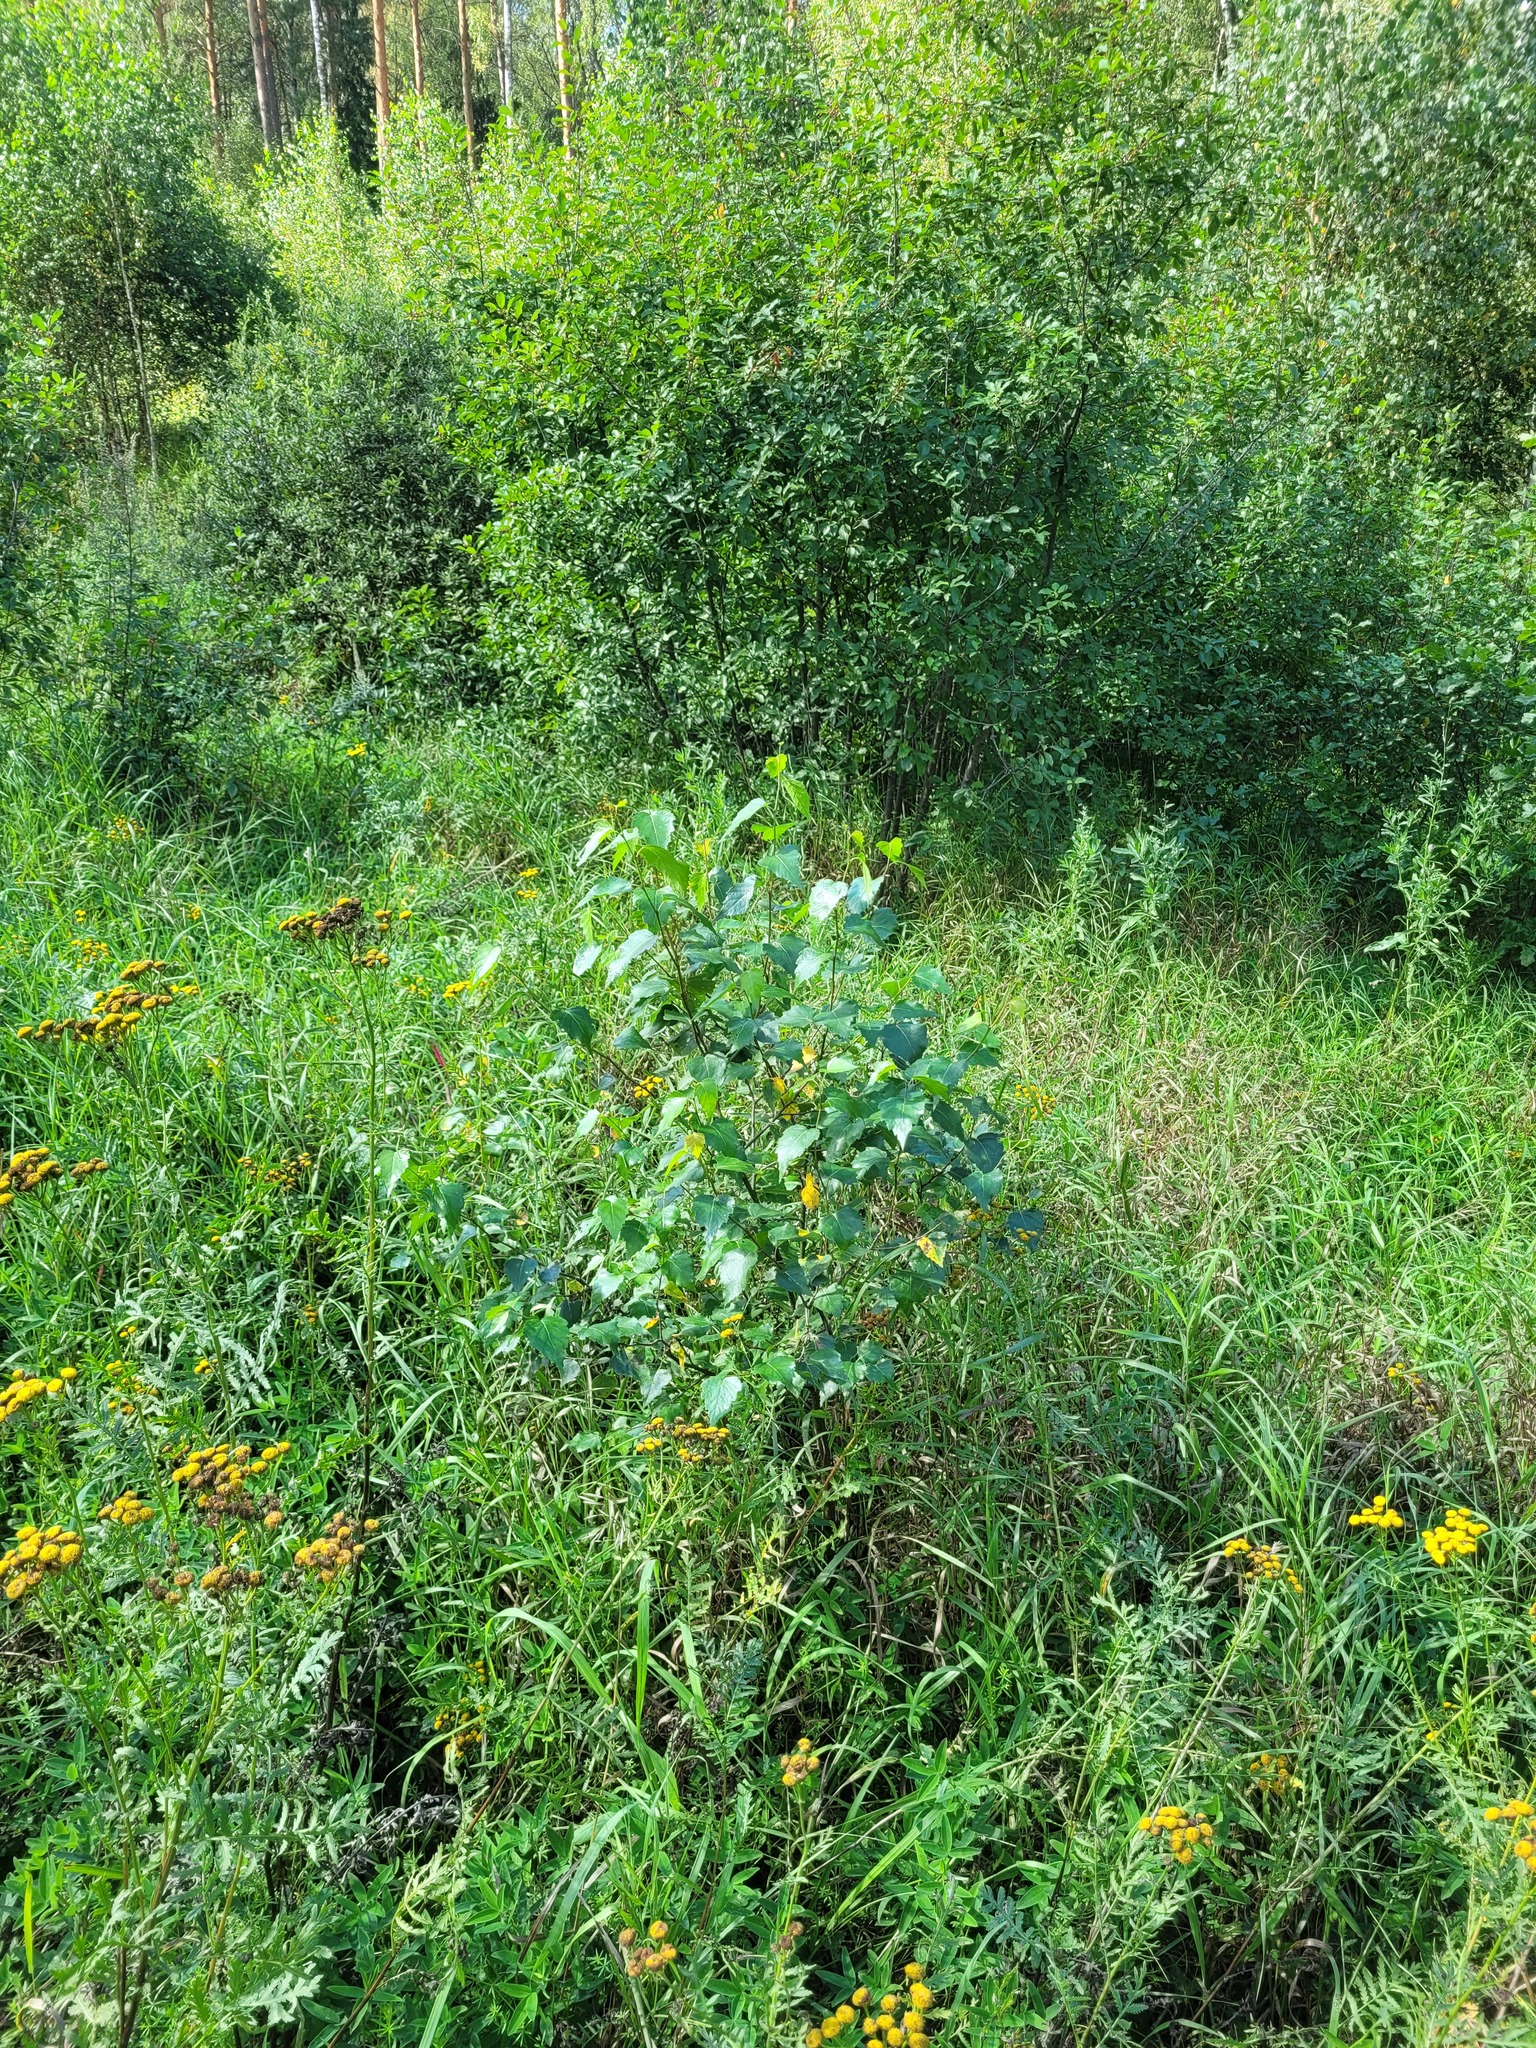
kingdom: Plantae
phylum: Tracheophyta
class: Magnoliopsida
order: Fagales
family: Betulaceae
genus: Betula
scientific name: Betula pendula
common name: Silver birch
